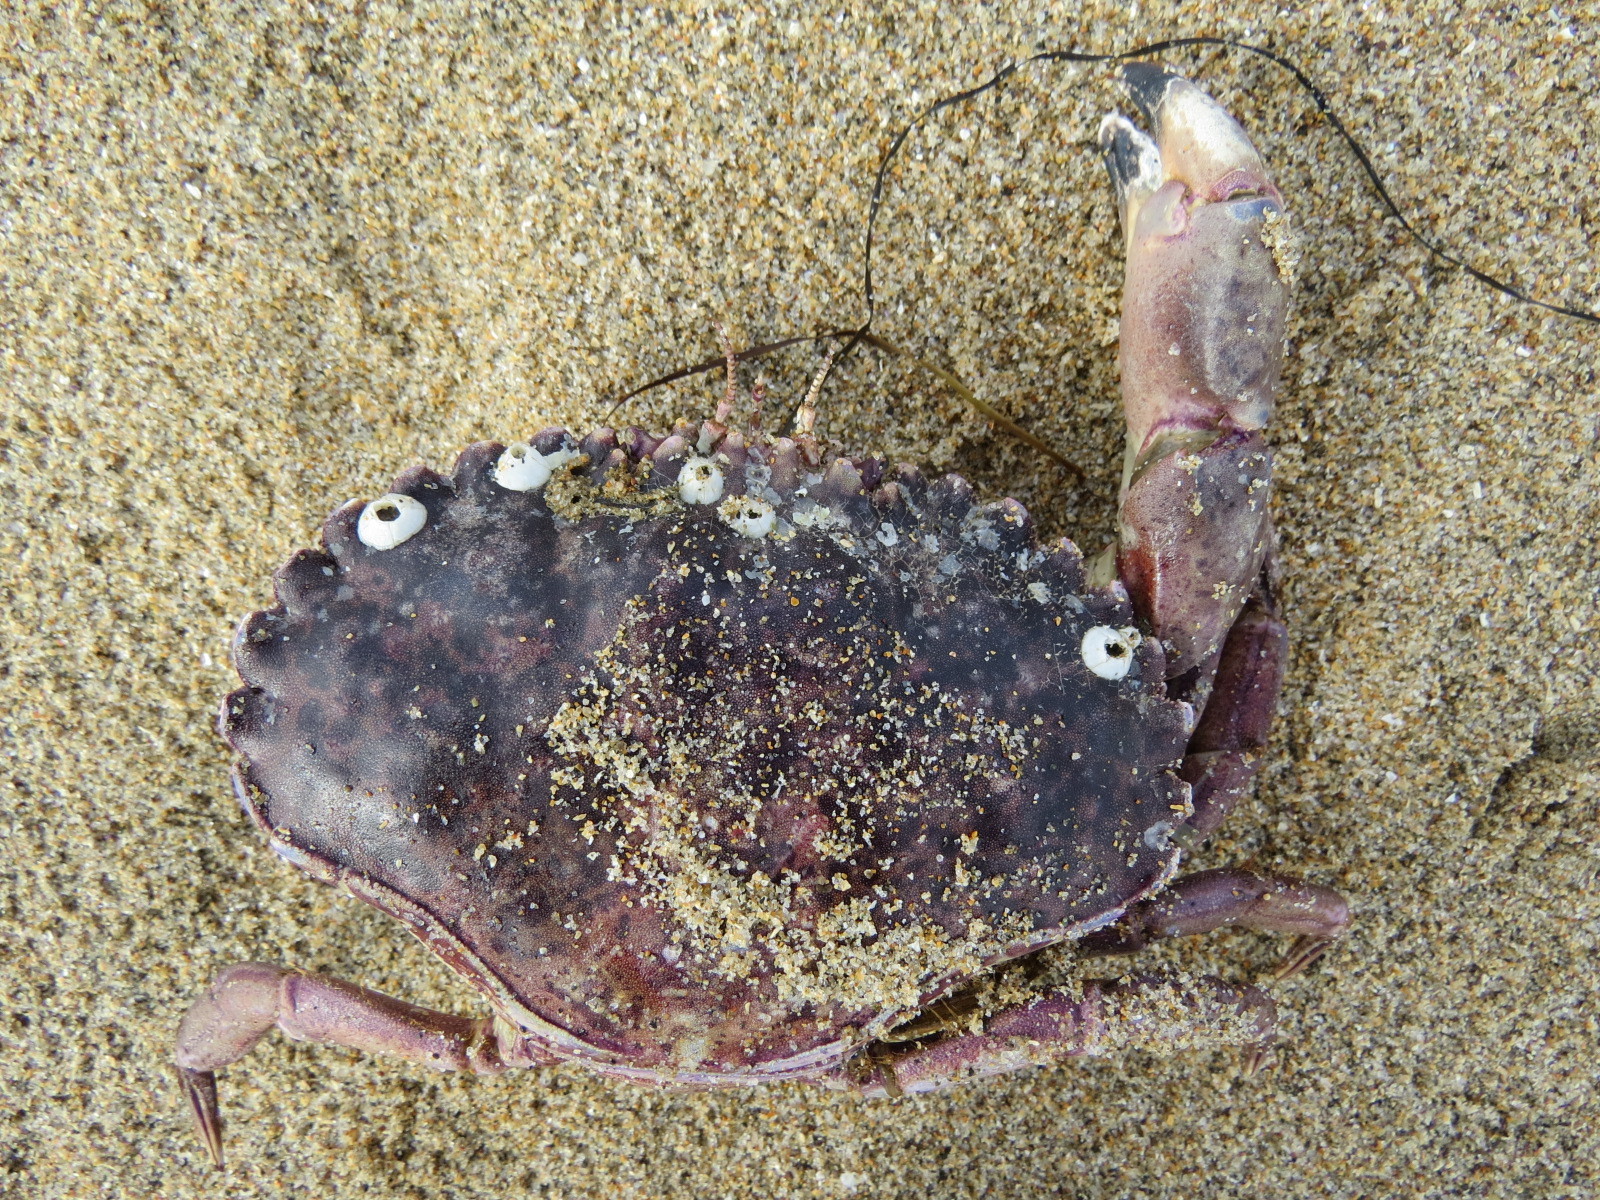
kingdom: Animalia
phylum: Arthropoda
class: Malacostraca
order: Decapoda
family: Cancridae
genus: Romaleon
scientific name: Romaleon antennarium
